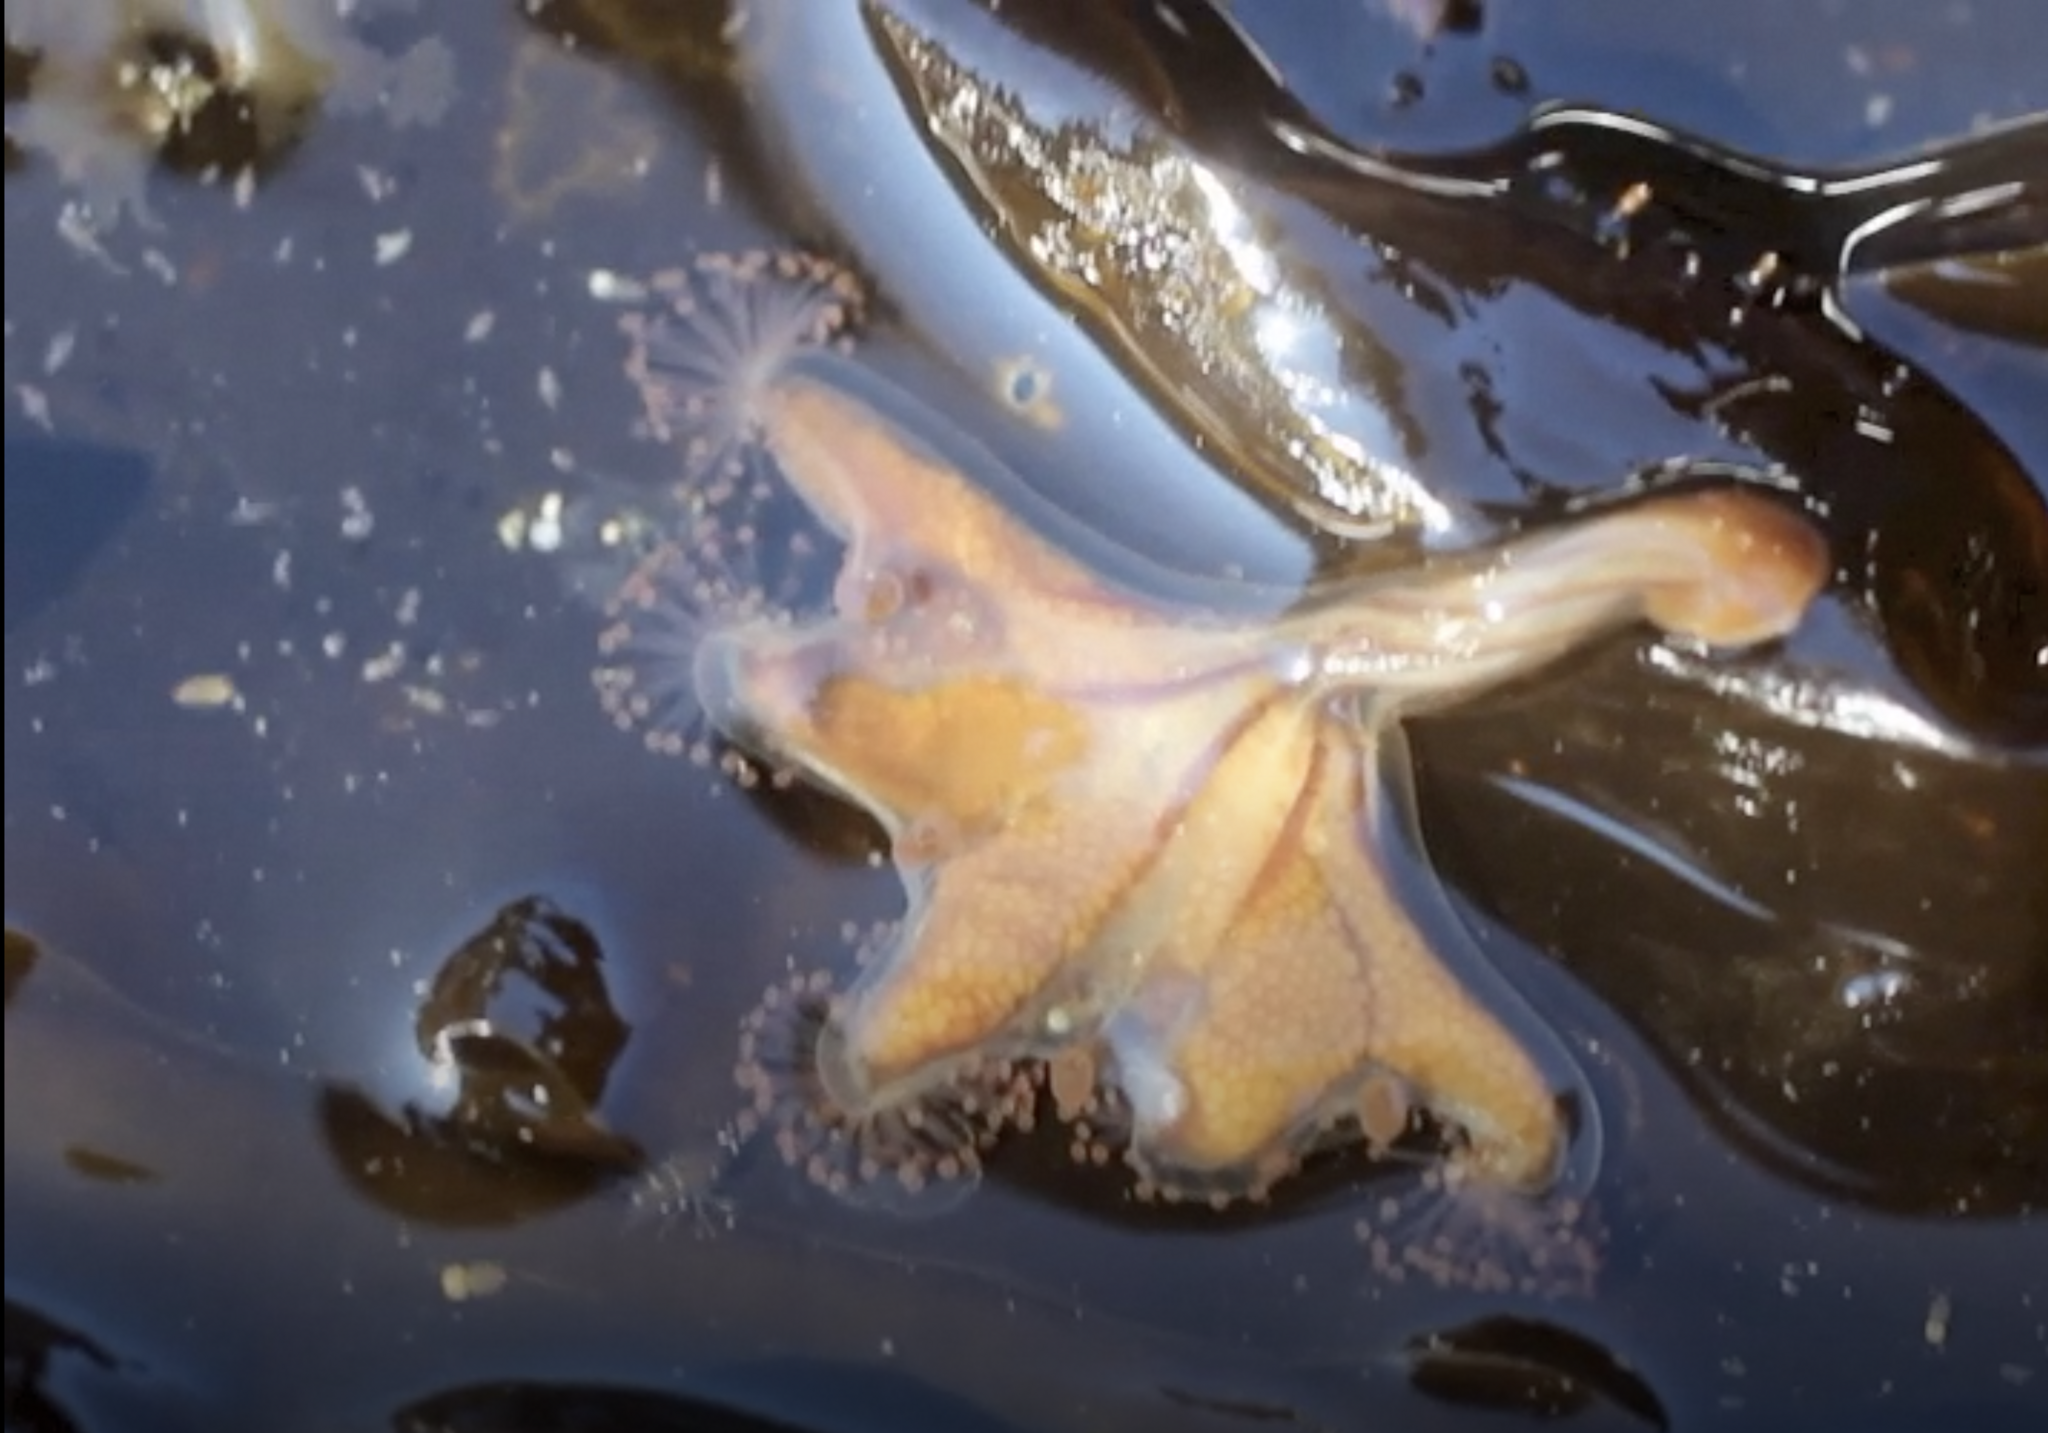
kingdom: Animalia
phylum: Cnidaria
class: Staurozoa
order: Stauromedusae
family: Haliclystidae
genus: Haliclystus
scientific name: Haliclystus sanjuanensis
